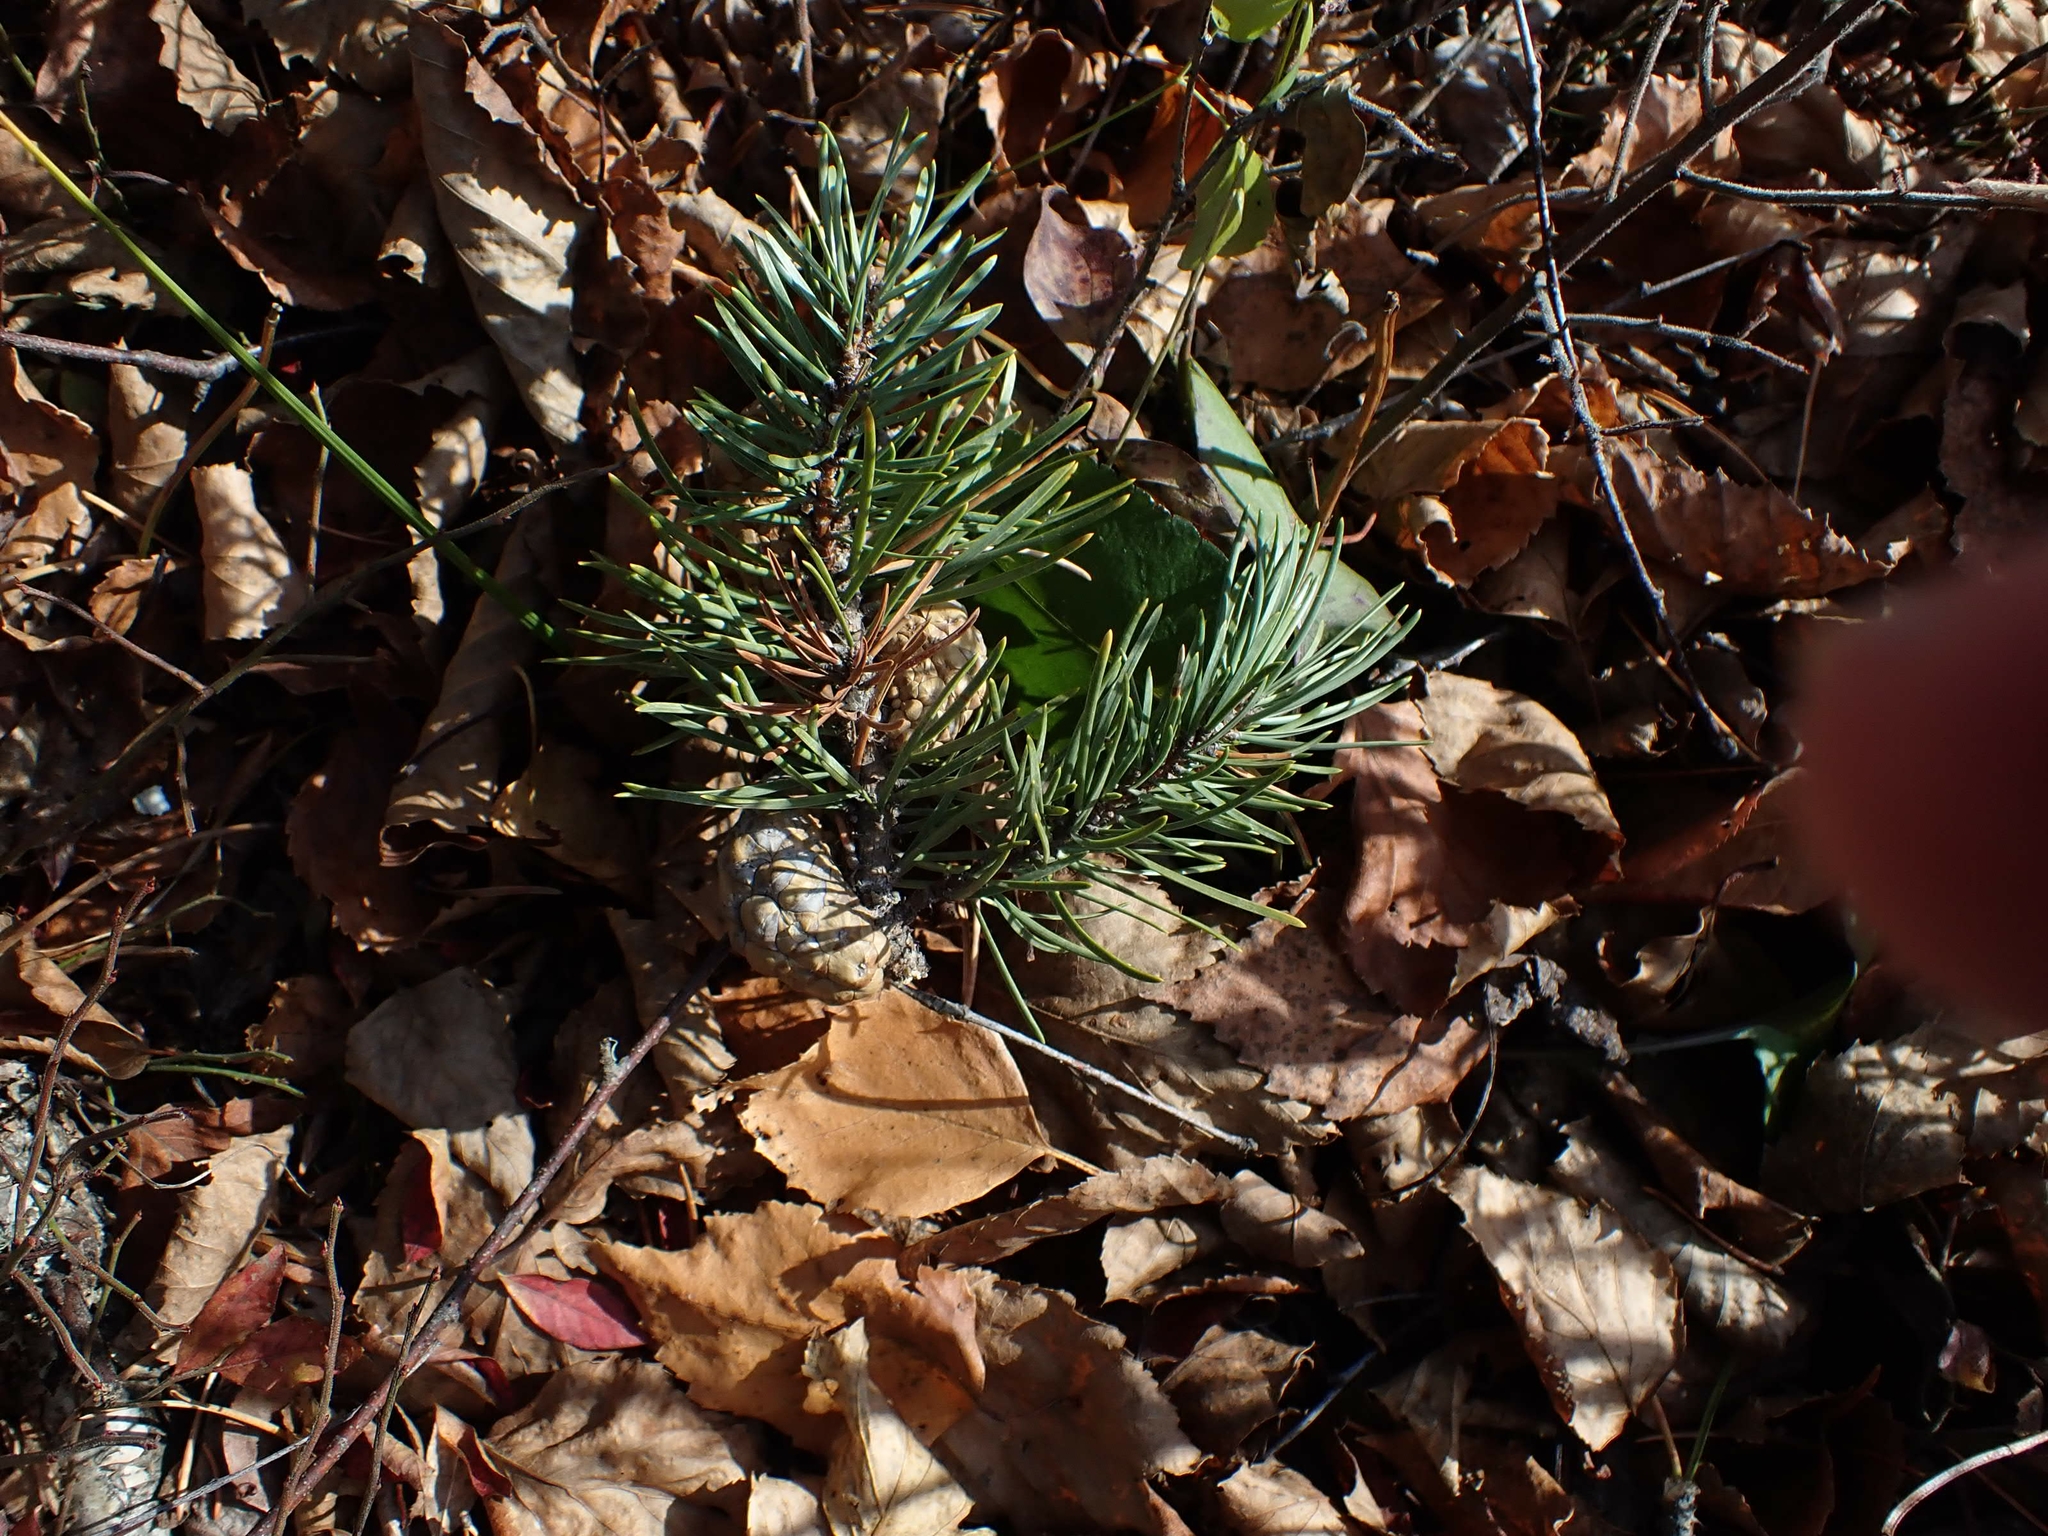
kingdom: Plantae
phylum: Tracheophyta
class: Pinopsida
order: Pinales
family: Pinaceae
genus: Pinus
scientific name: Pinus banksiana
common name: Jack pine
